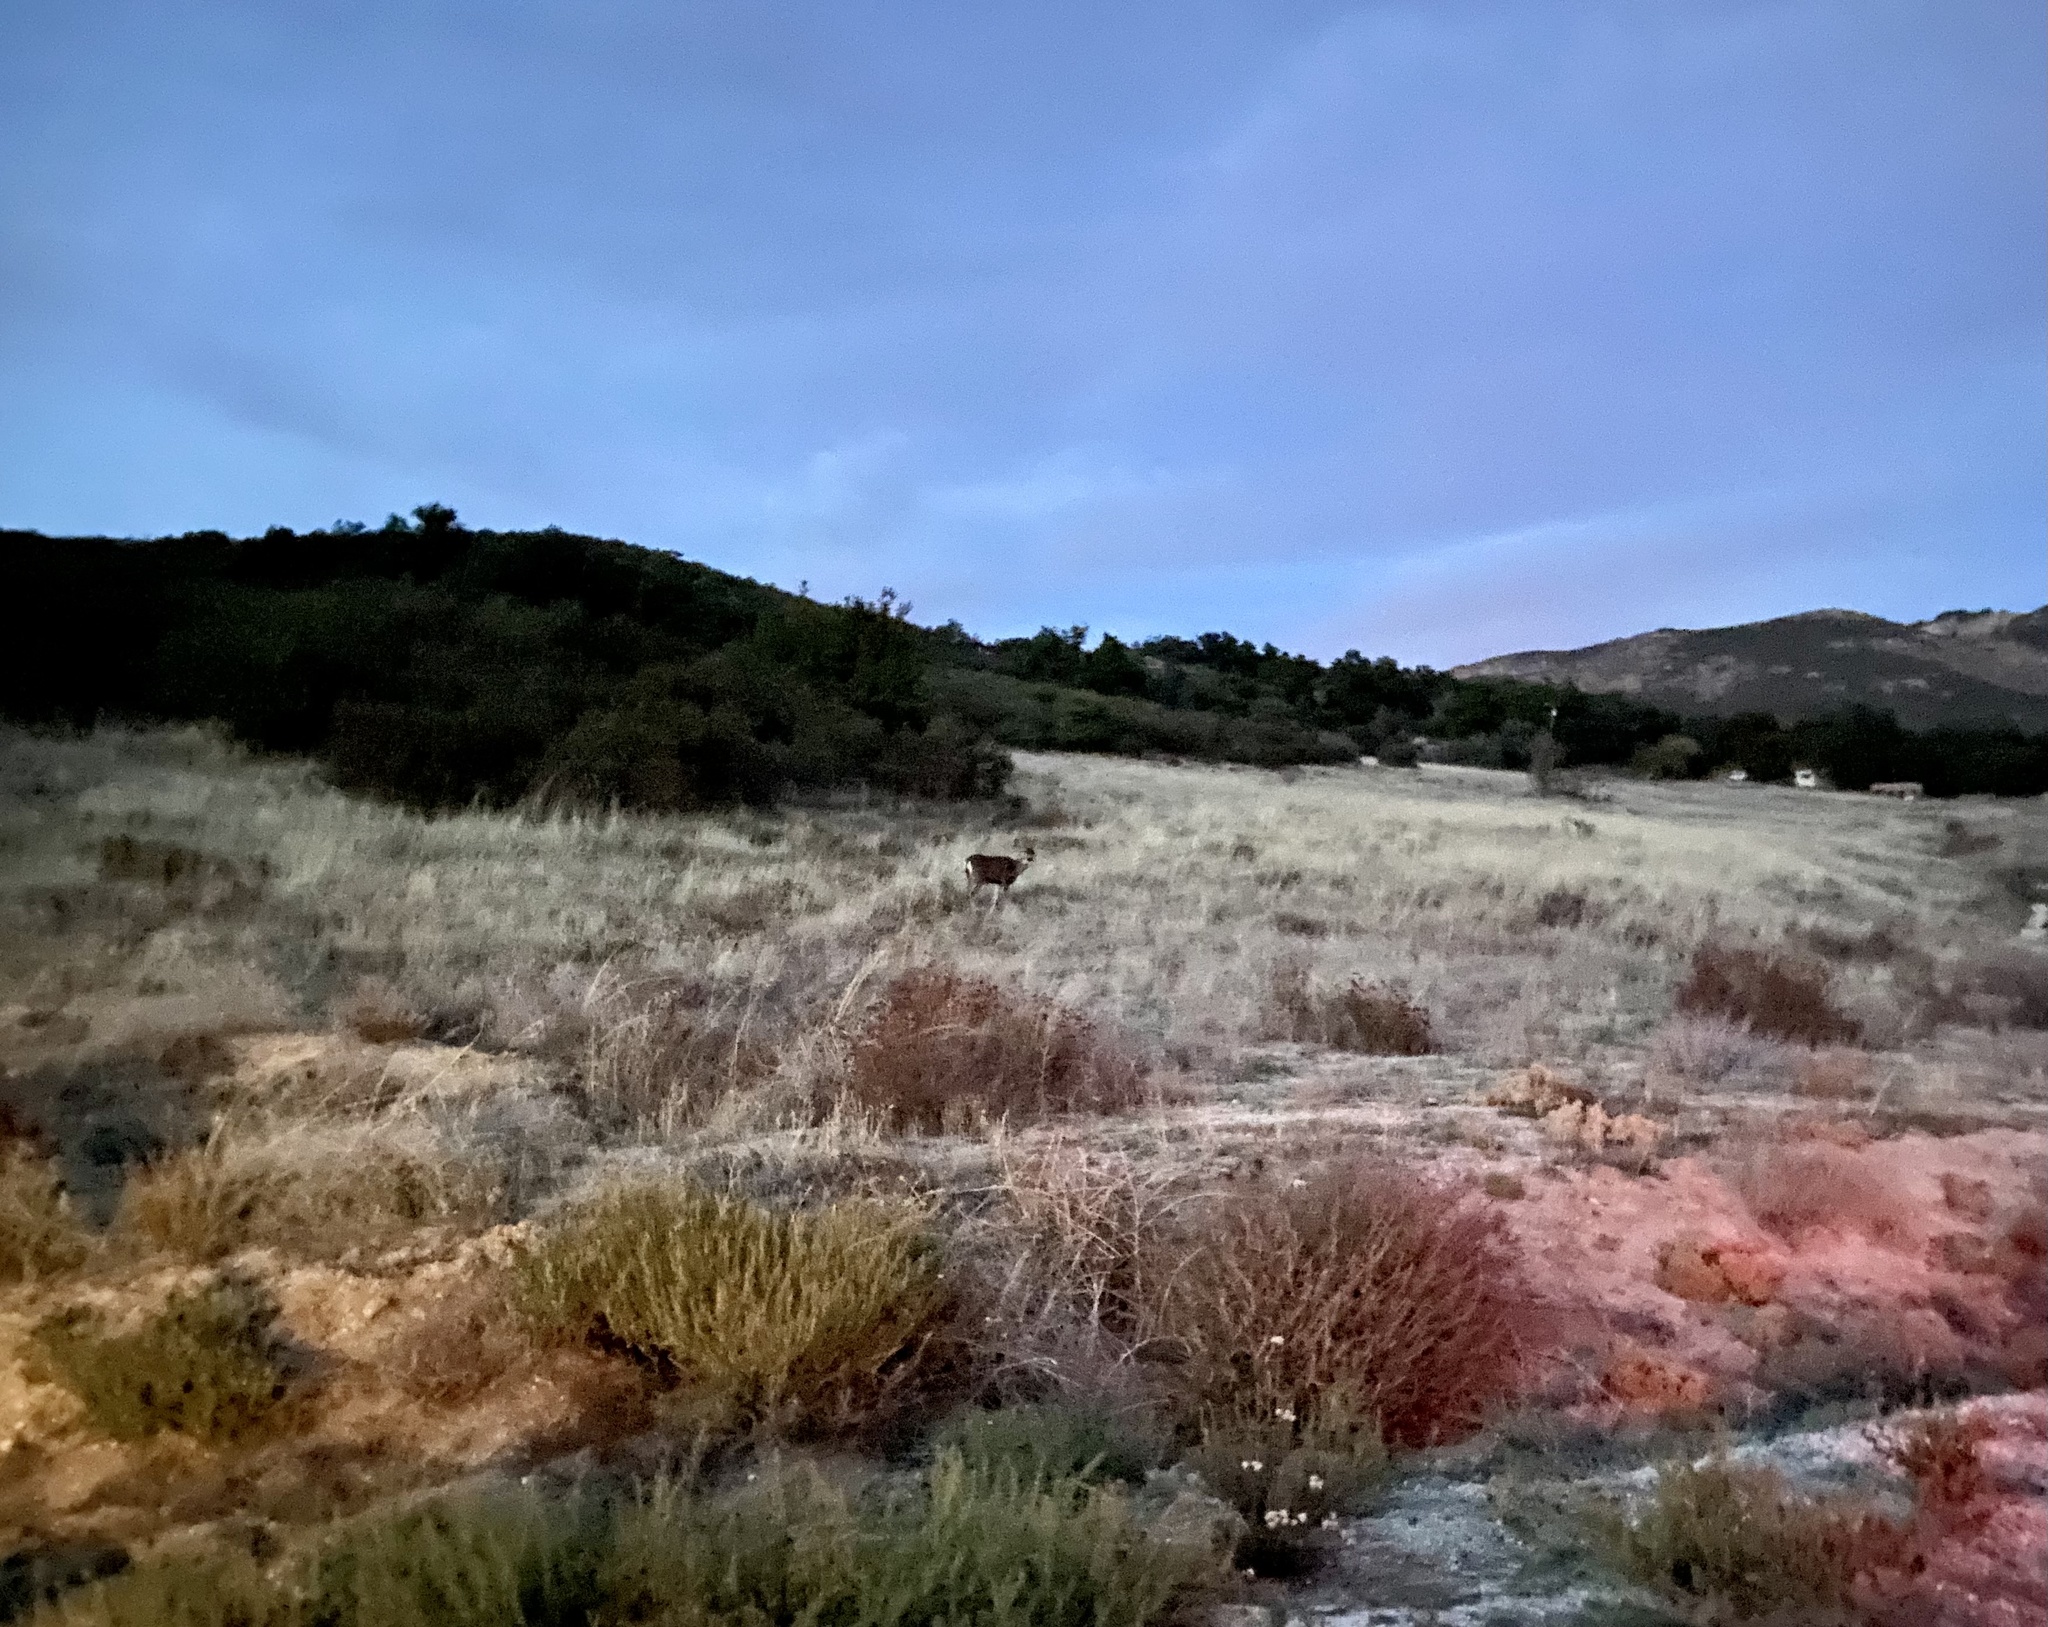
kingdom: Animalia
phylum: Chordata
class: Mammalia
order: Artiodactyla
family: Cervidae
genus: Odocoileus
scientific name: Odocoileus hemionus
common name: Mule deer
